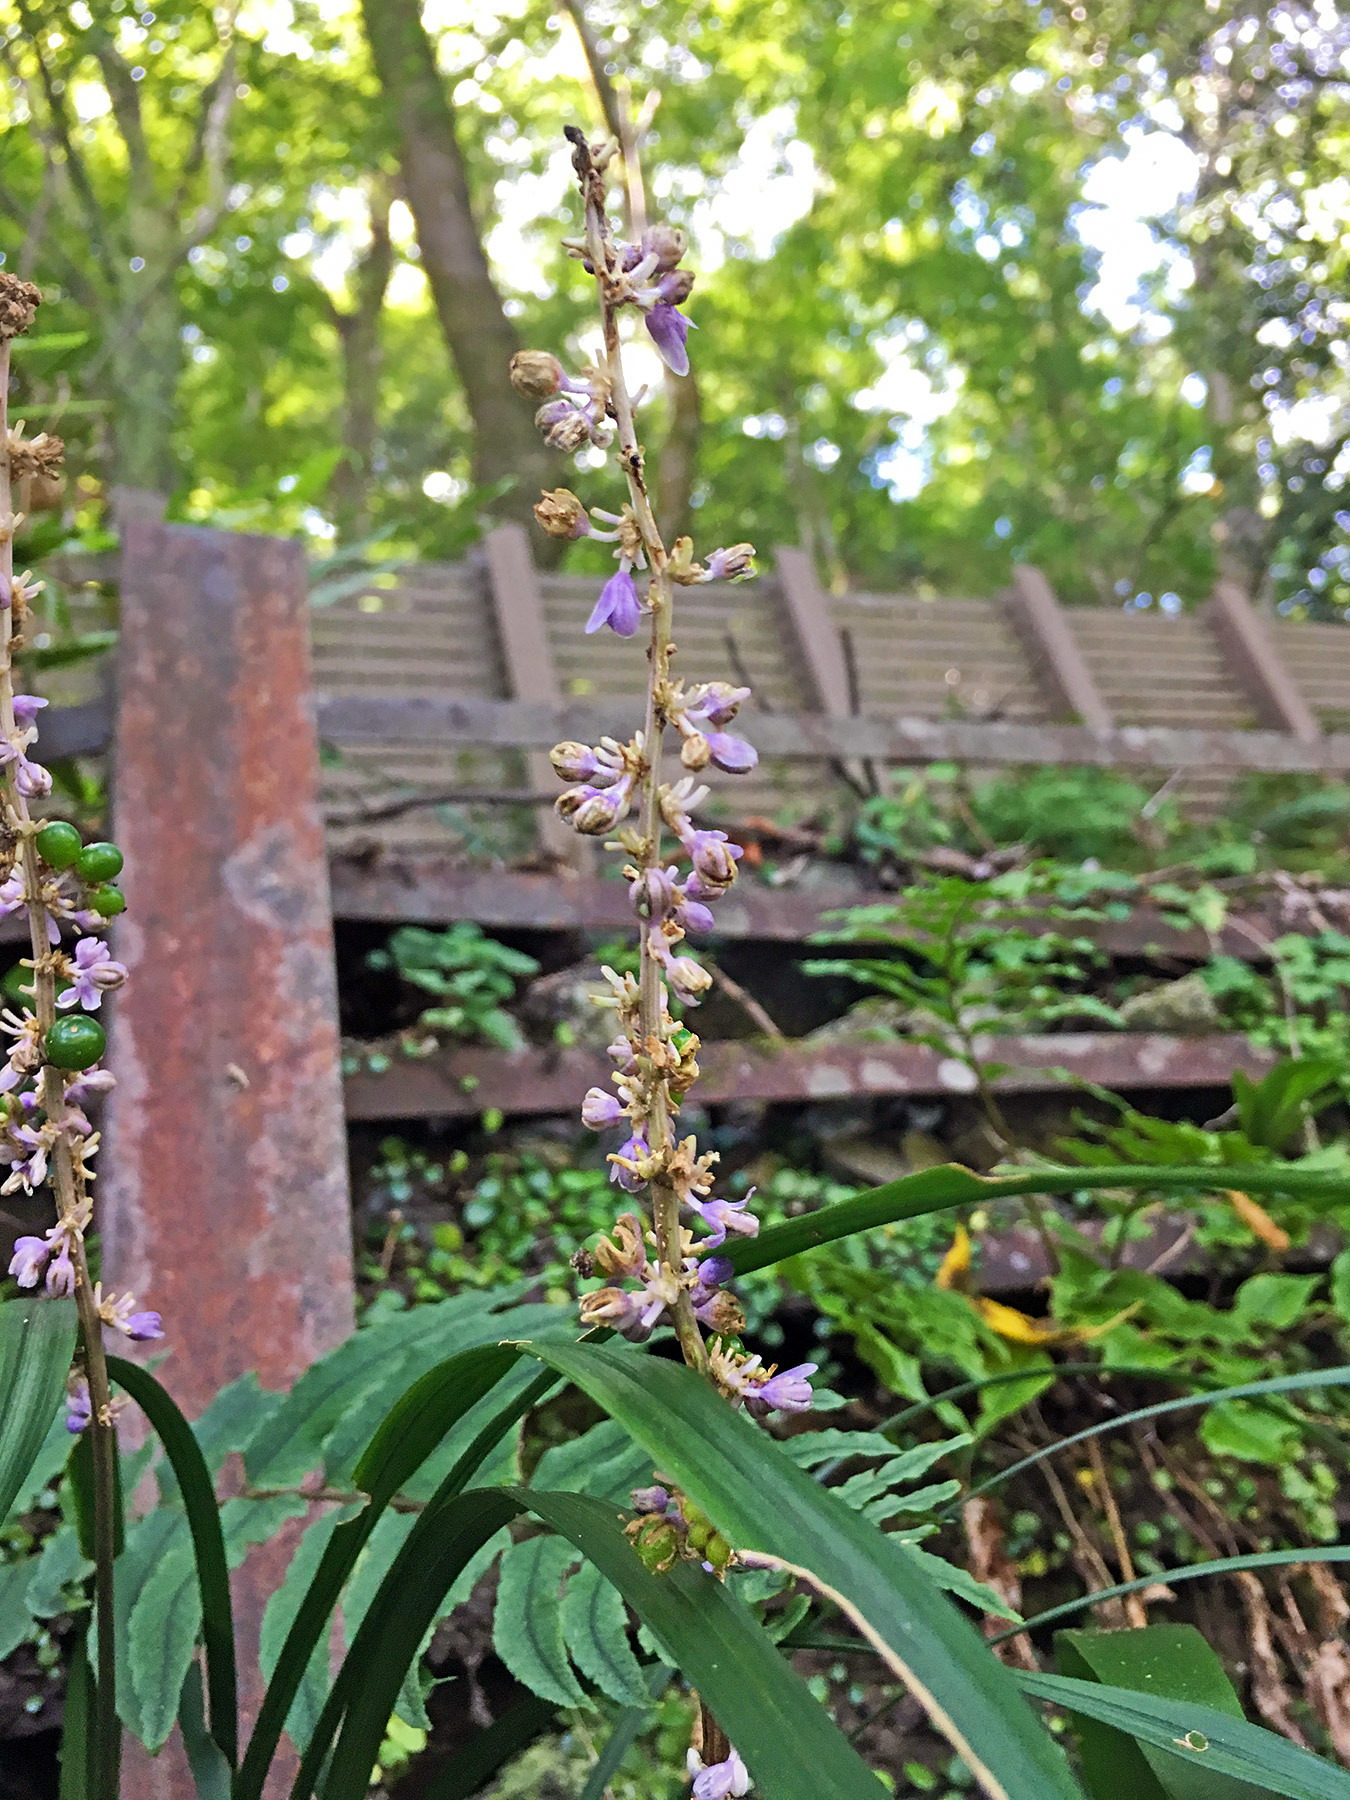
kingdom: Plantae
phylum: Tracheophyta
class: Liliopsida
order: Asparagales
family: Asparagaceae
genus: Liriope
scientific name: Liriope muscari
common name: Big blue lilyturf
